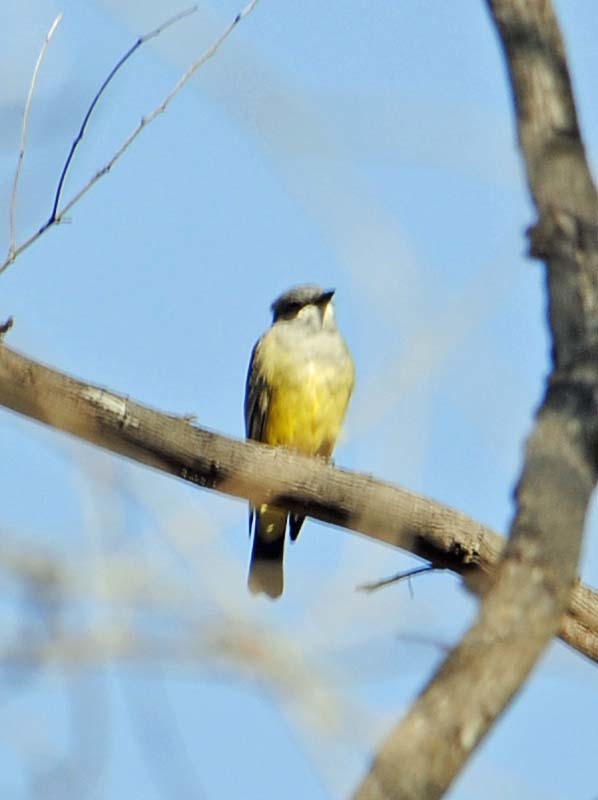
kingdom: Animalia
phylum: Chordata
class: Aves
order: Passeriformes
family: Tyrannidae
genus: Tyrannus
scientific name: Tyrannus vociferans
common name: Cassin's kingbird
